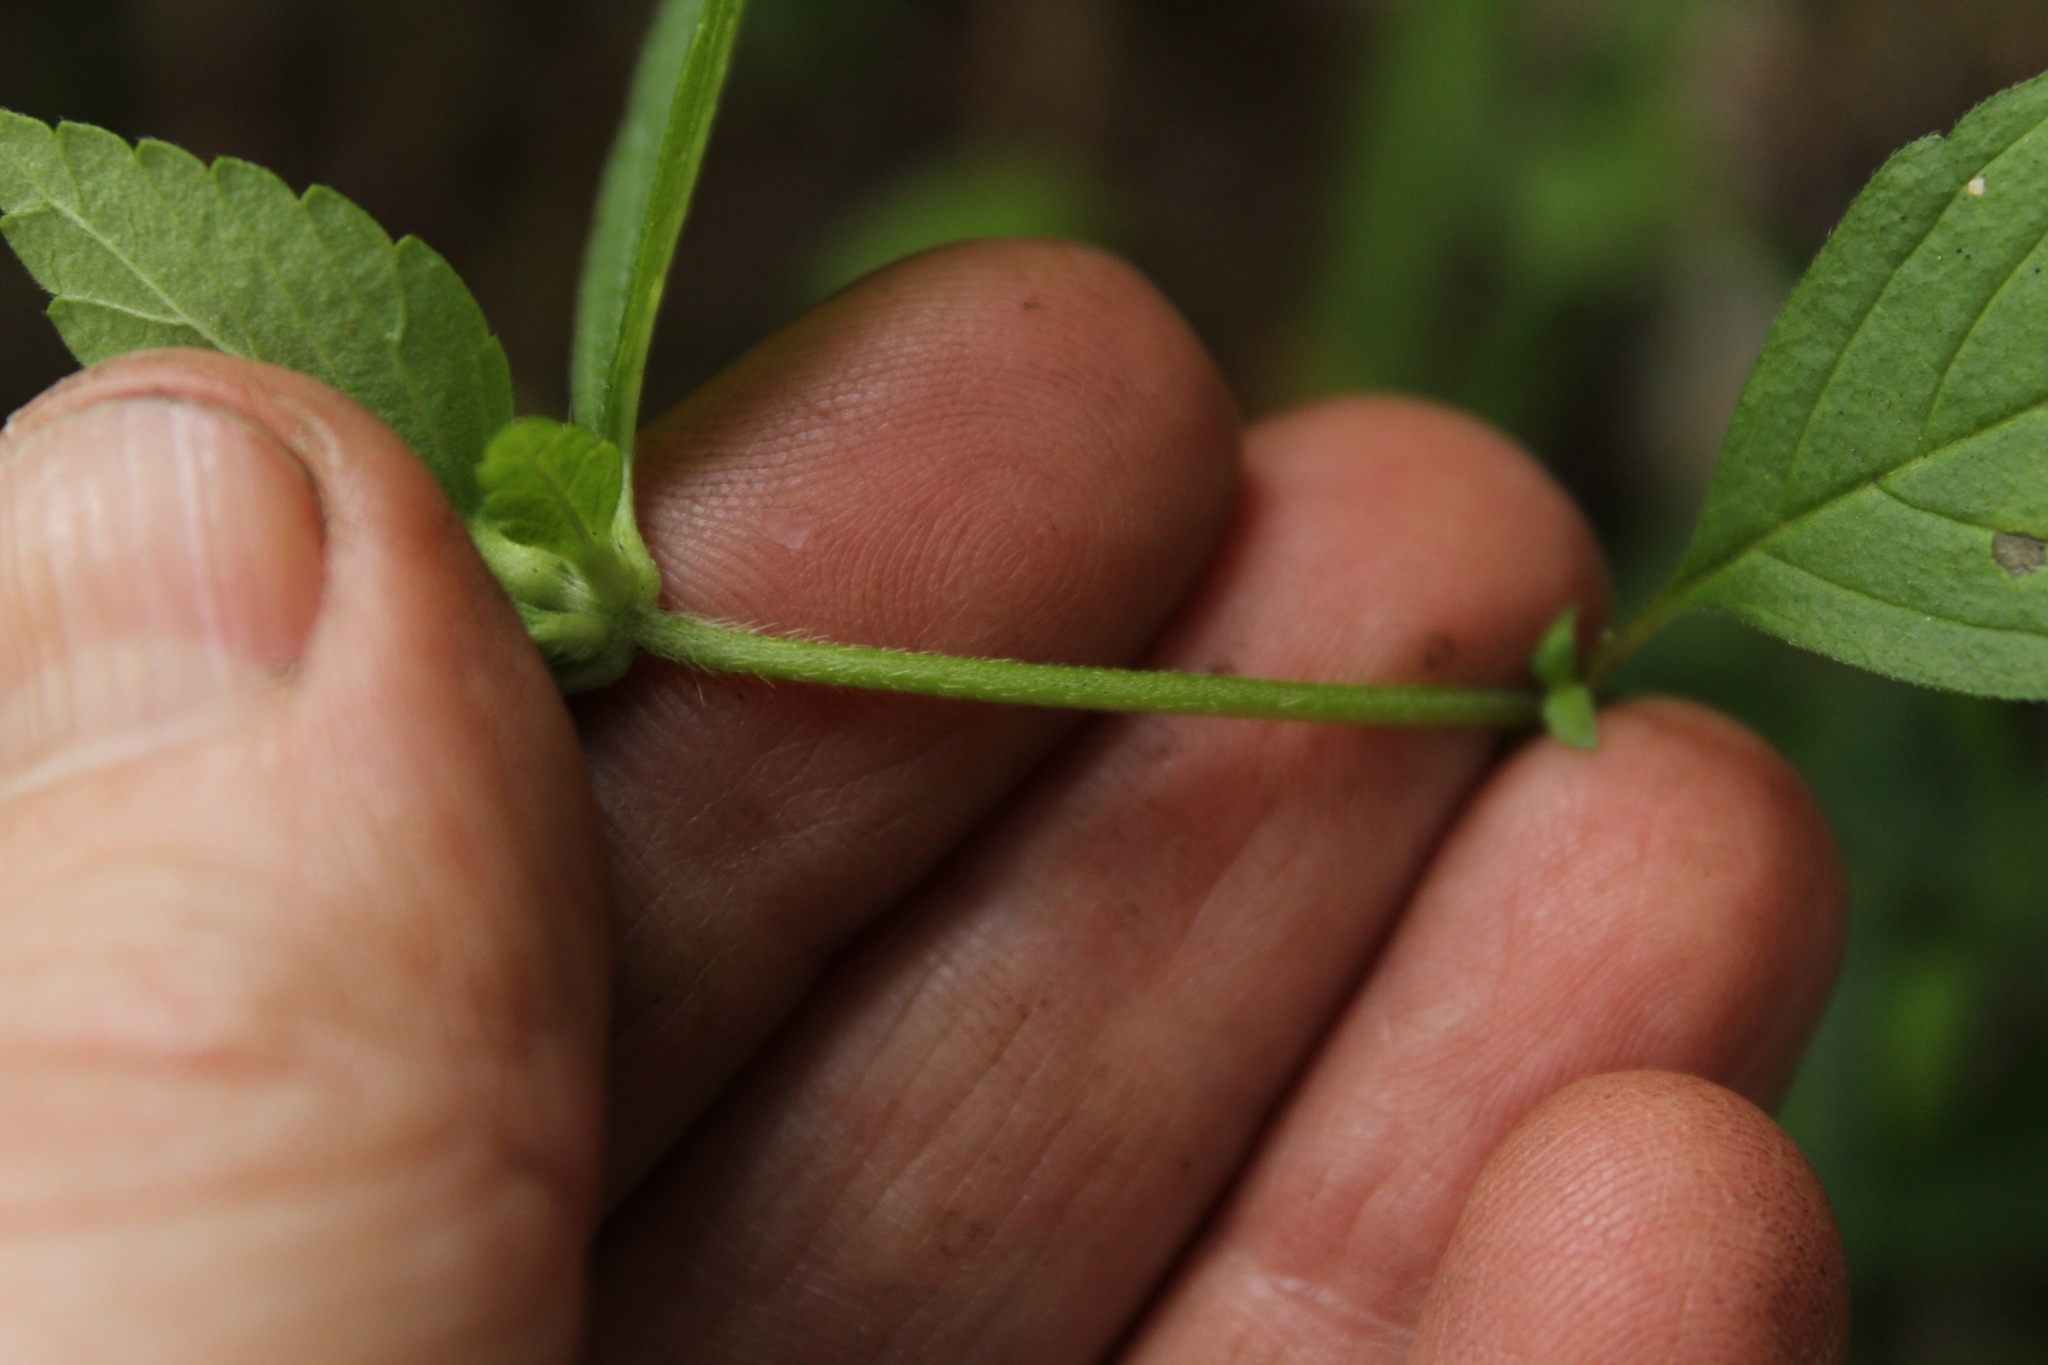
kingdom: Plantae
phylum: Tracheophyta
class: Magnoliopsida
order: Lamiales
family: Lamiaceae
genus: Galeopsis
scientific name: Galeopsis bifida
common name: Bifid hemp-nettle
